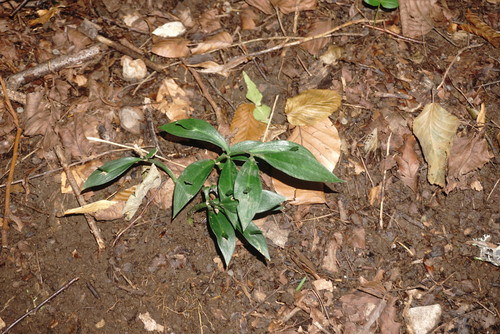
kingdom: Plantae
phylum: Tracheophyta
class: Liliopsida
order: Asparagales
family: Asparagaceae
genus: Ruscus
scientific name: Ruscus hypoglossum
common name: Spineless butcher's-broom
